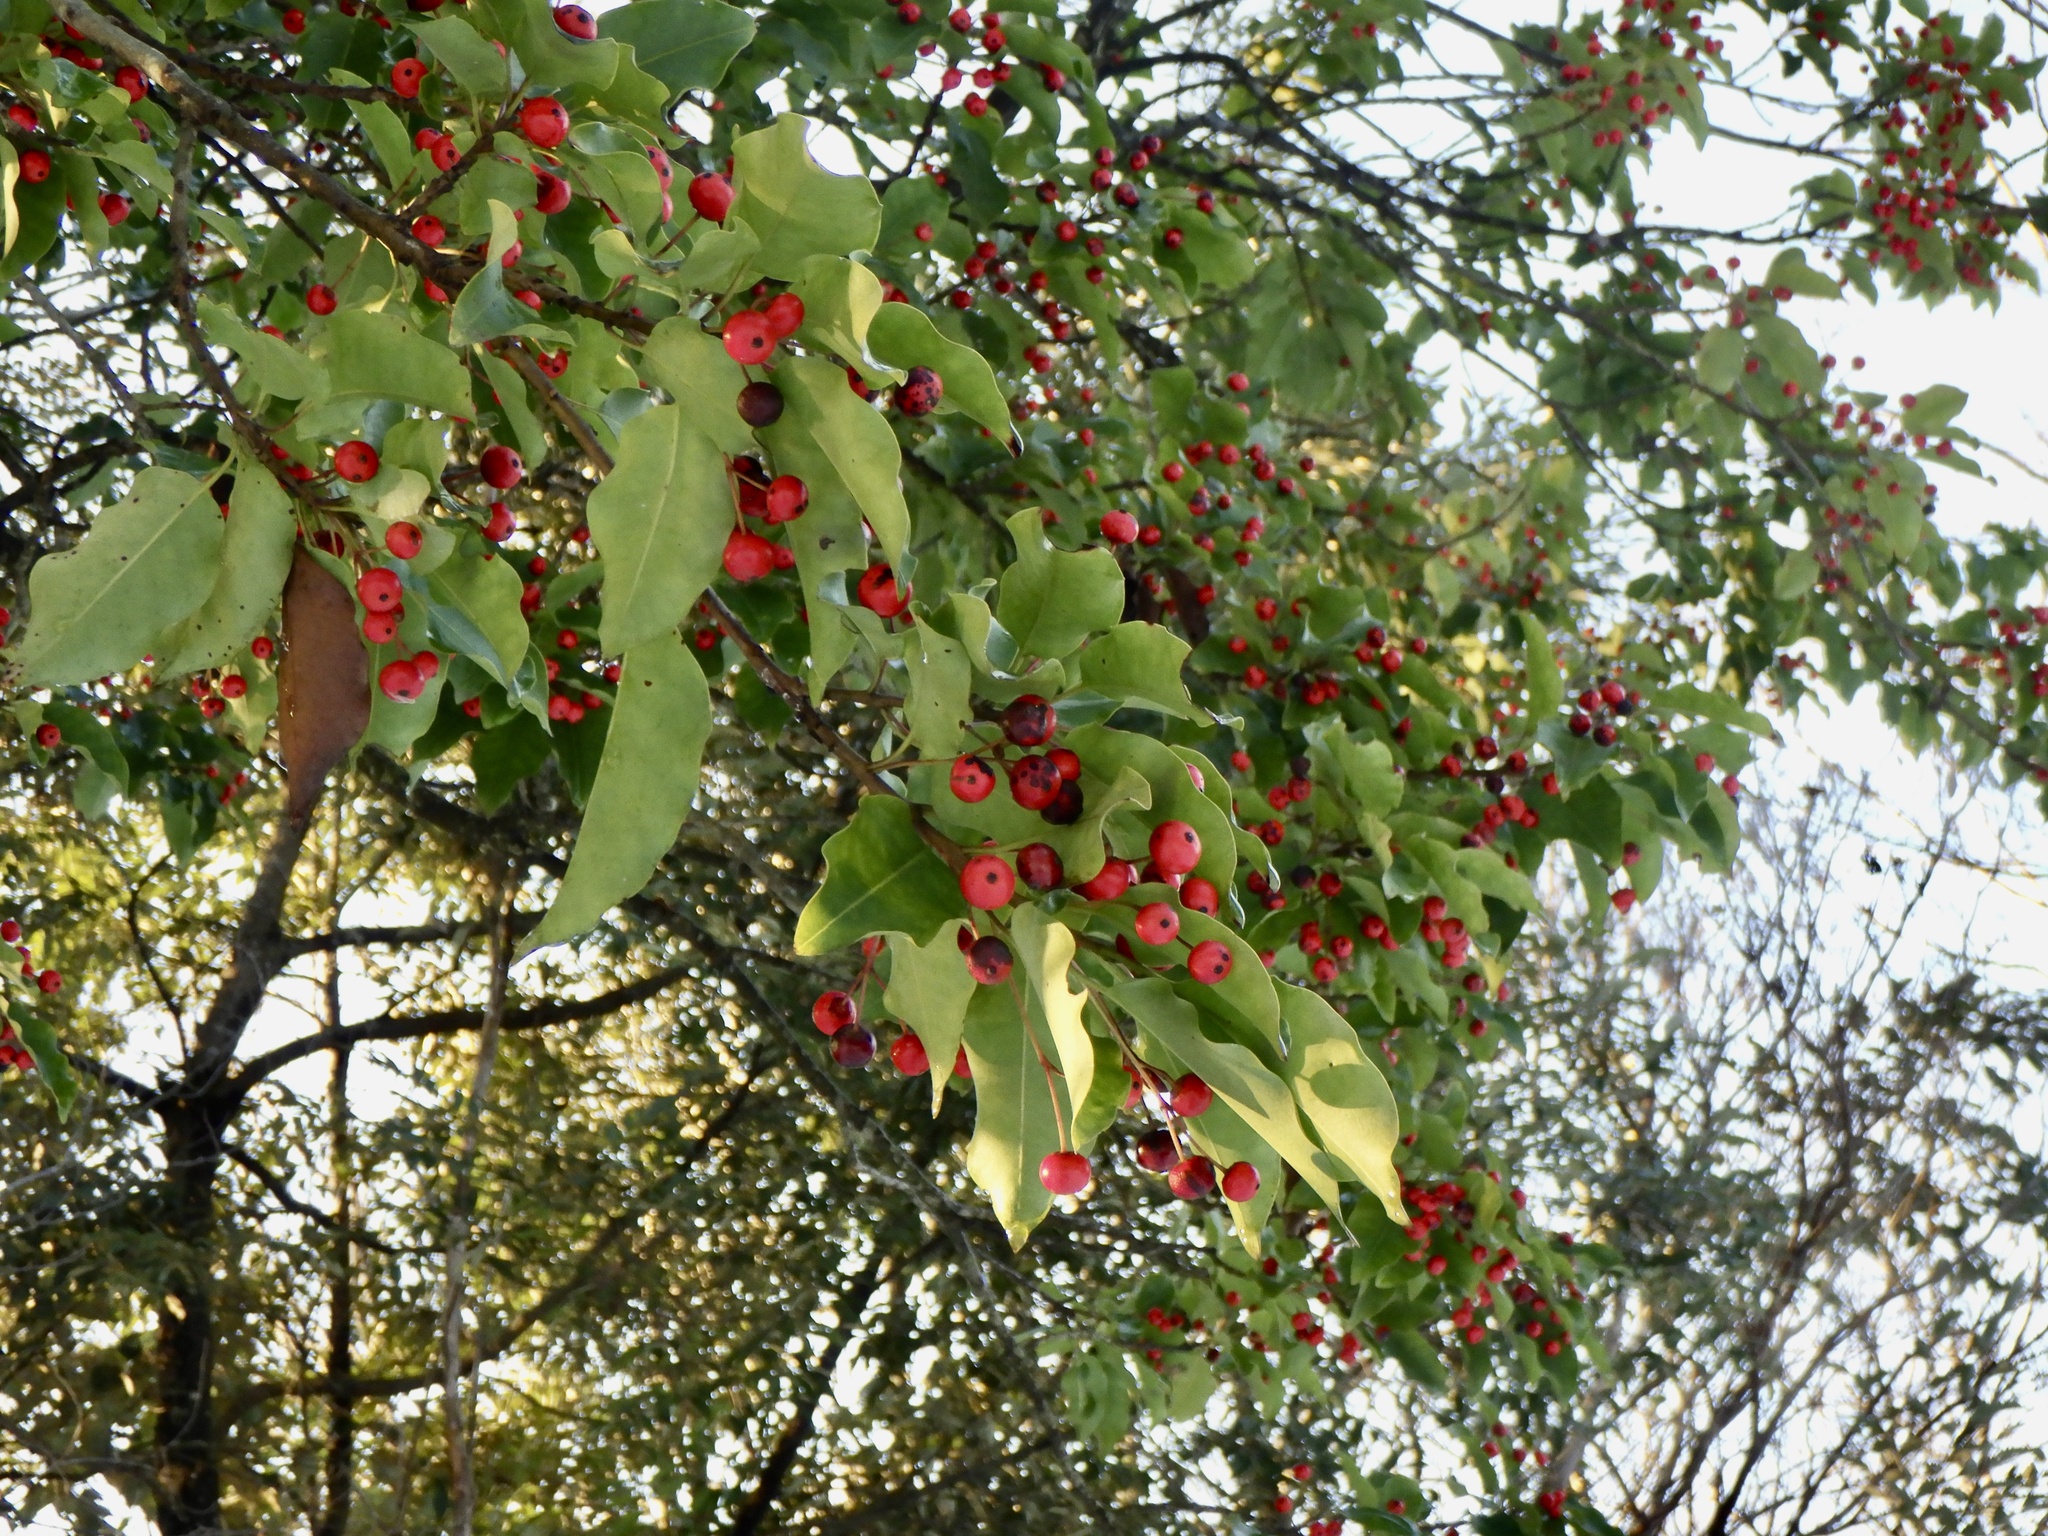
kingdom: Plantae
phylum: Tracheophyta
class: Magnoliopsida
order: Aquifoliales
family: Aquifoliaceae
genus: Ilex
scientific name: Ilex pedunculosa
